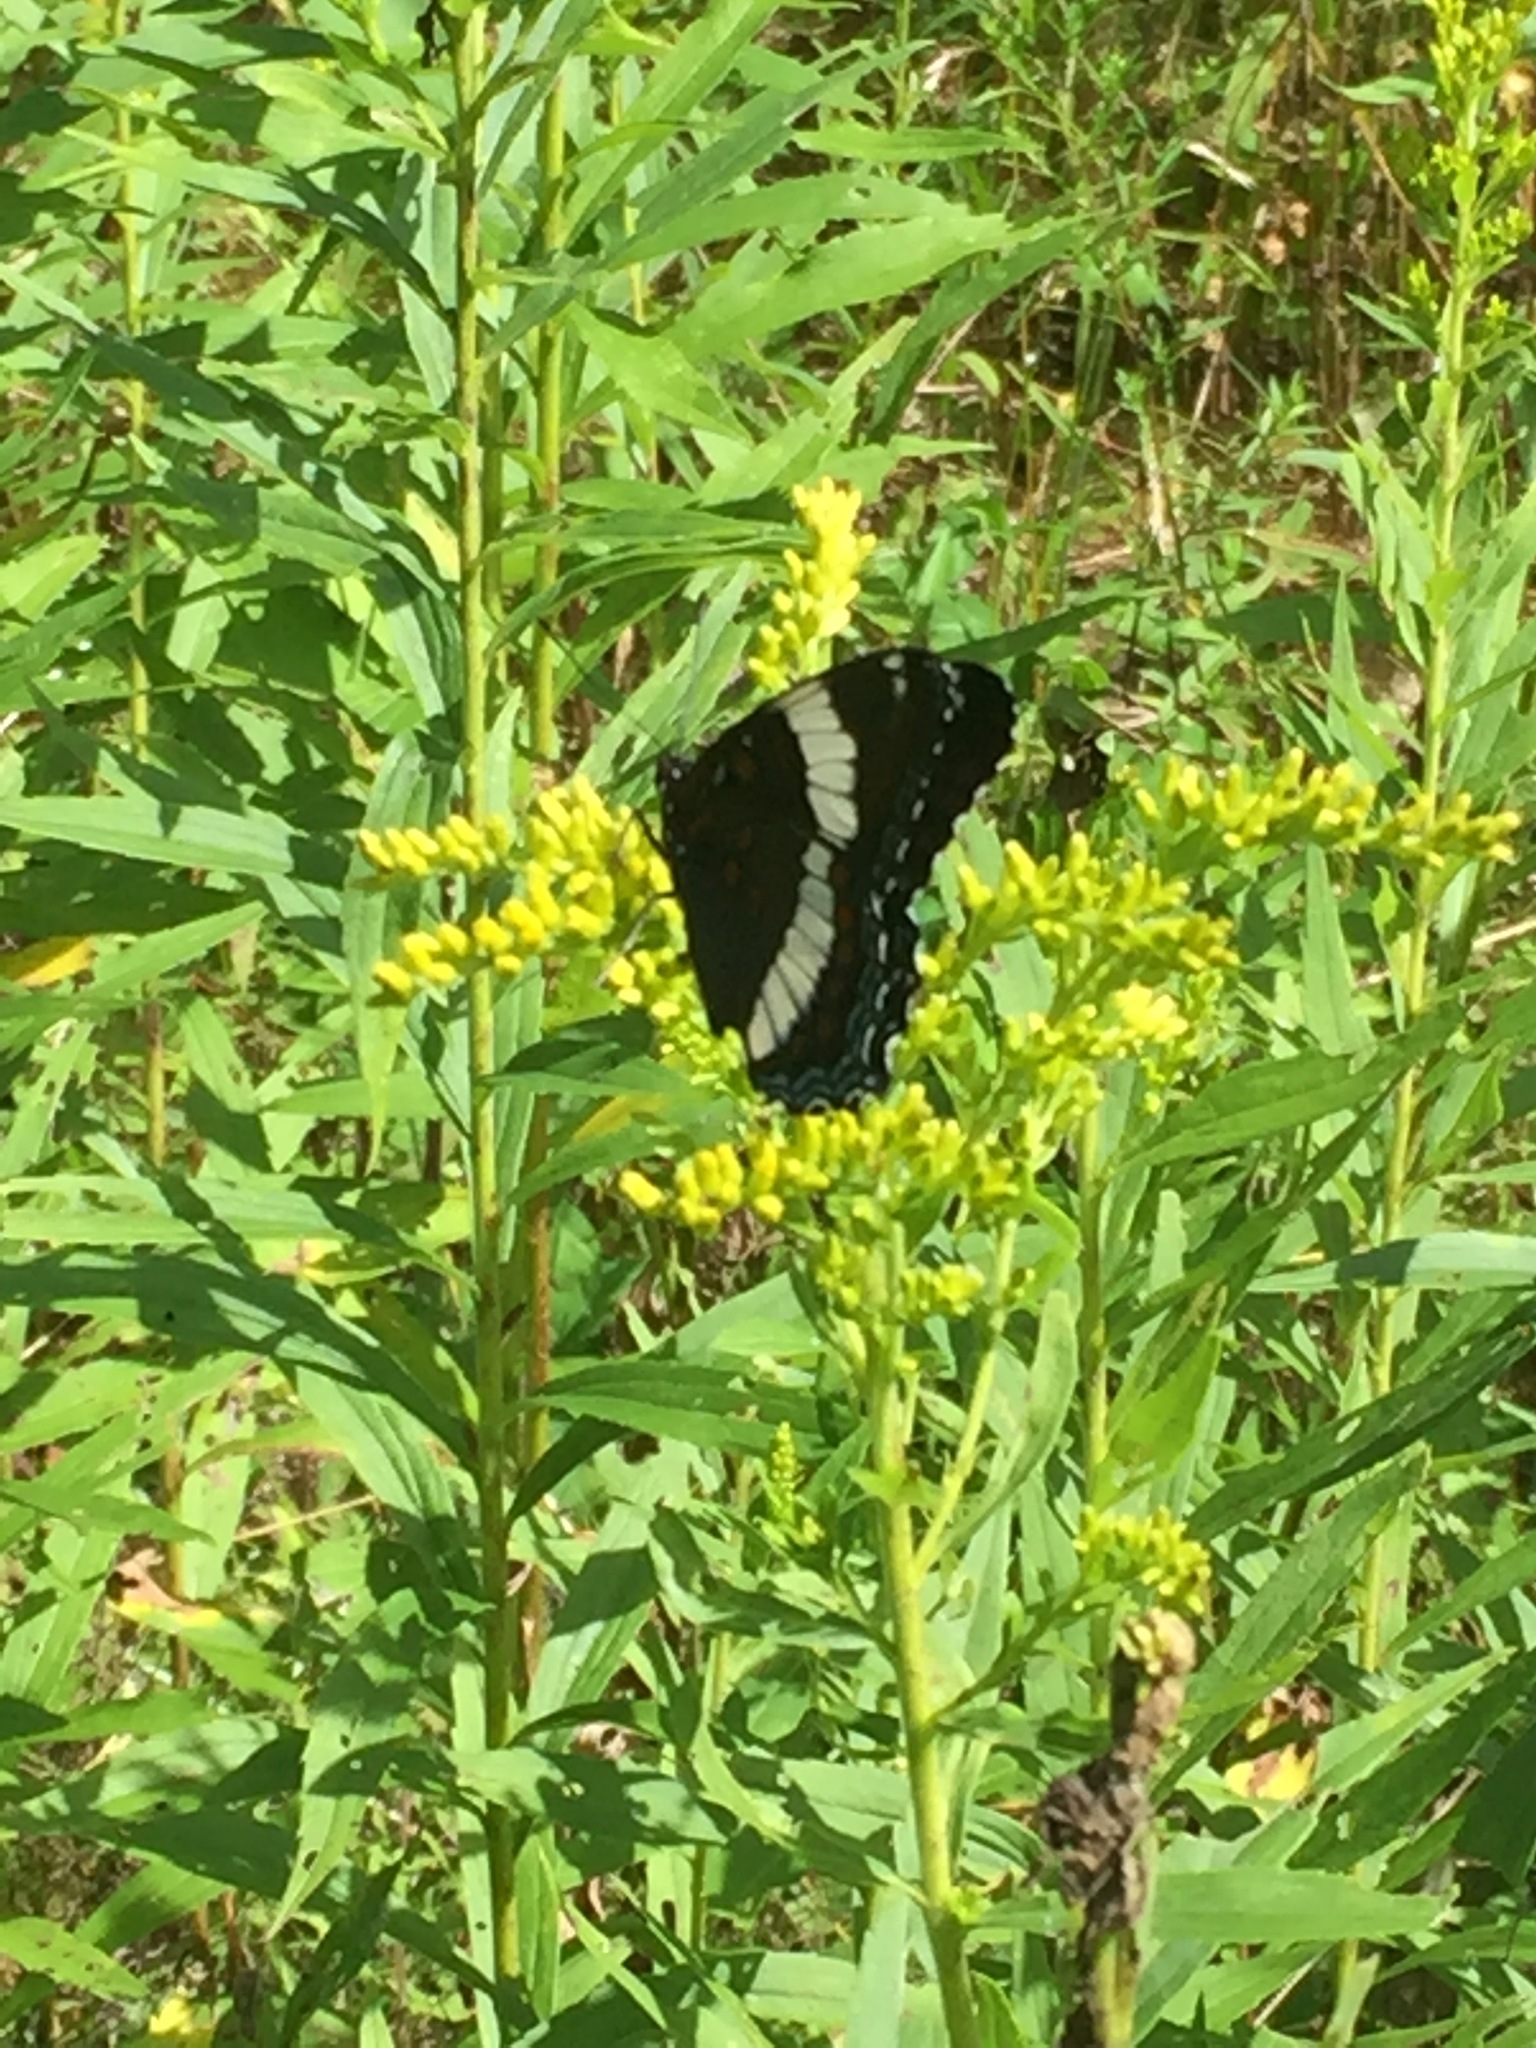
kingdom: Animalia
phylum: Arthropoda
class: Insecta
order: Lepidoptera
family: Nymphalidae
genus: Limenitis
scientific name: Limenitis arthemis
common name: Red-spotted admiral
